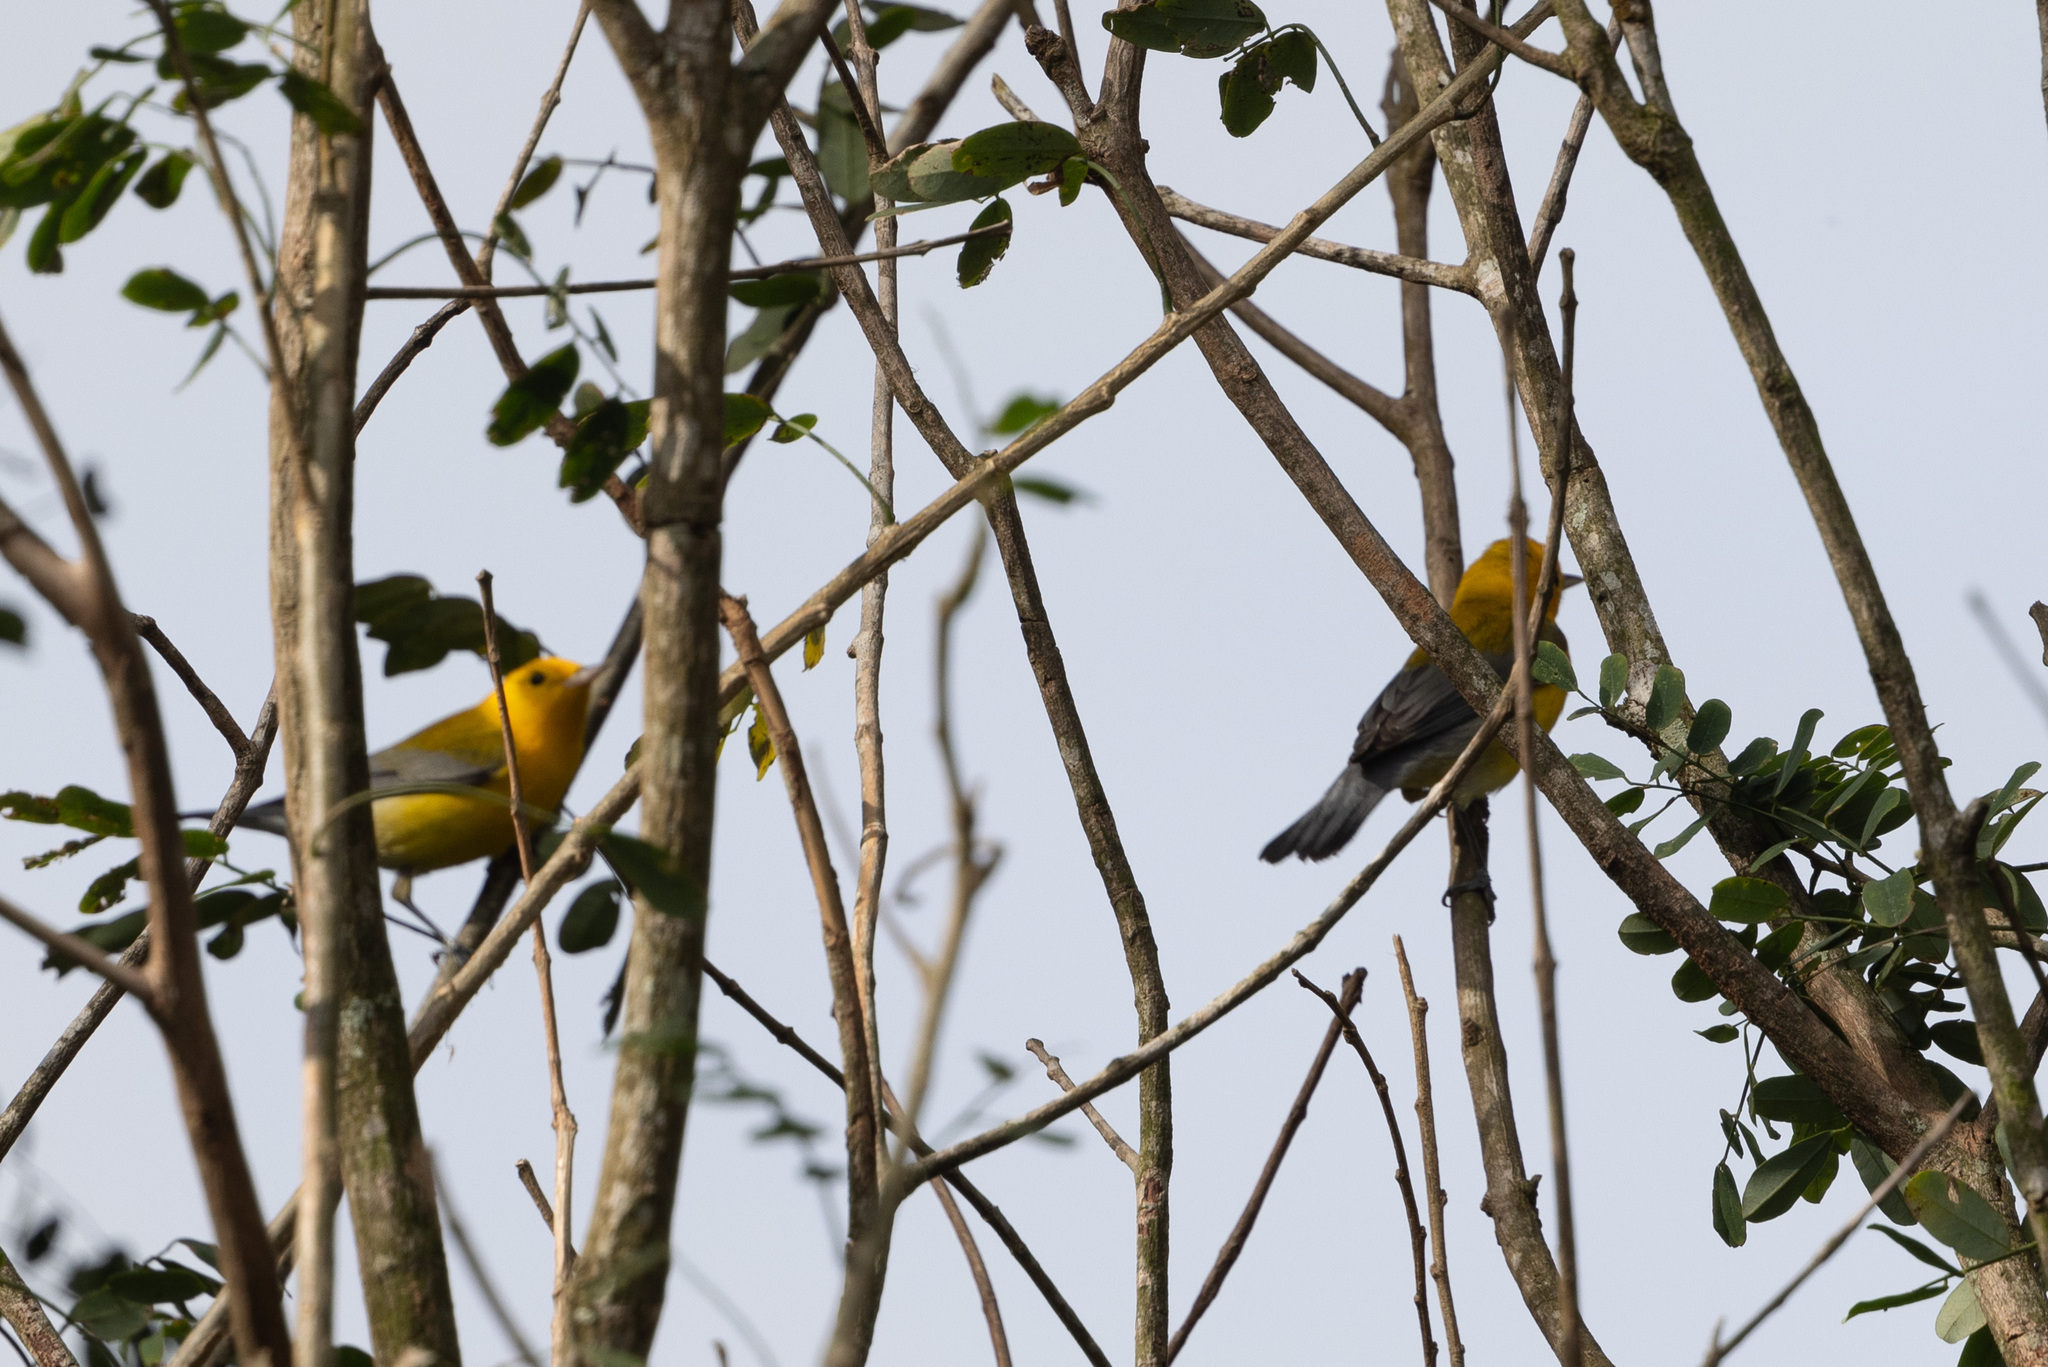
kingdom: Animalia
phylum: Chordata
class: Aves
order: Passeriformes
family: Parulidae
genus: Protonotaria
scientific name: Protonotaria citrea
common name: Prothonotary warbler
